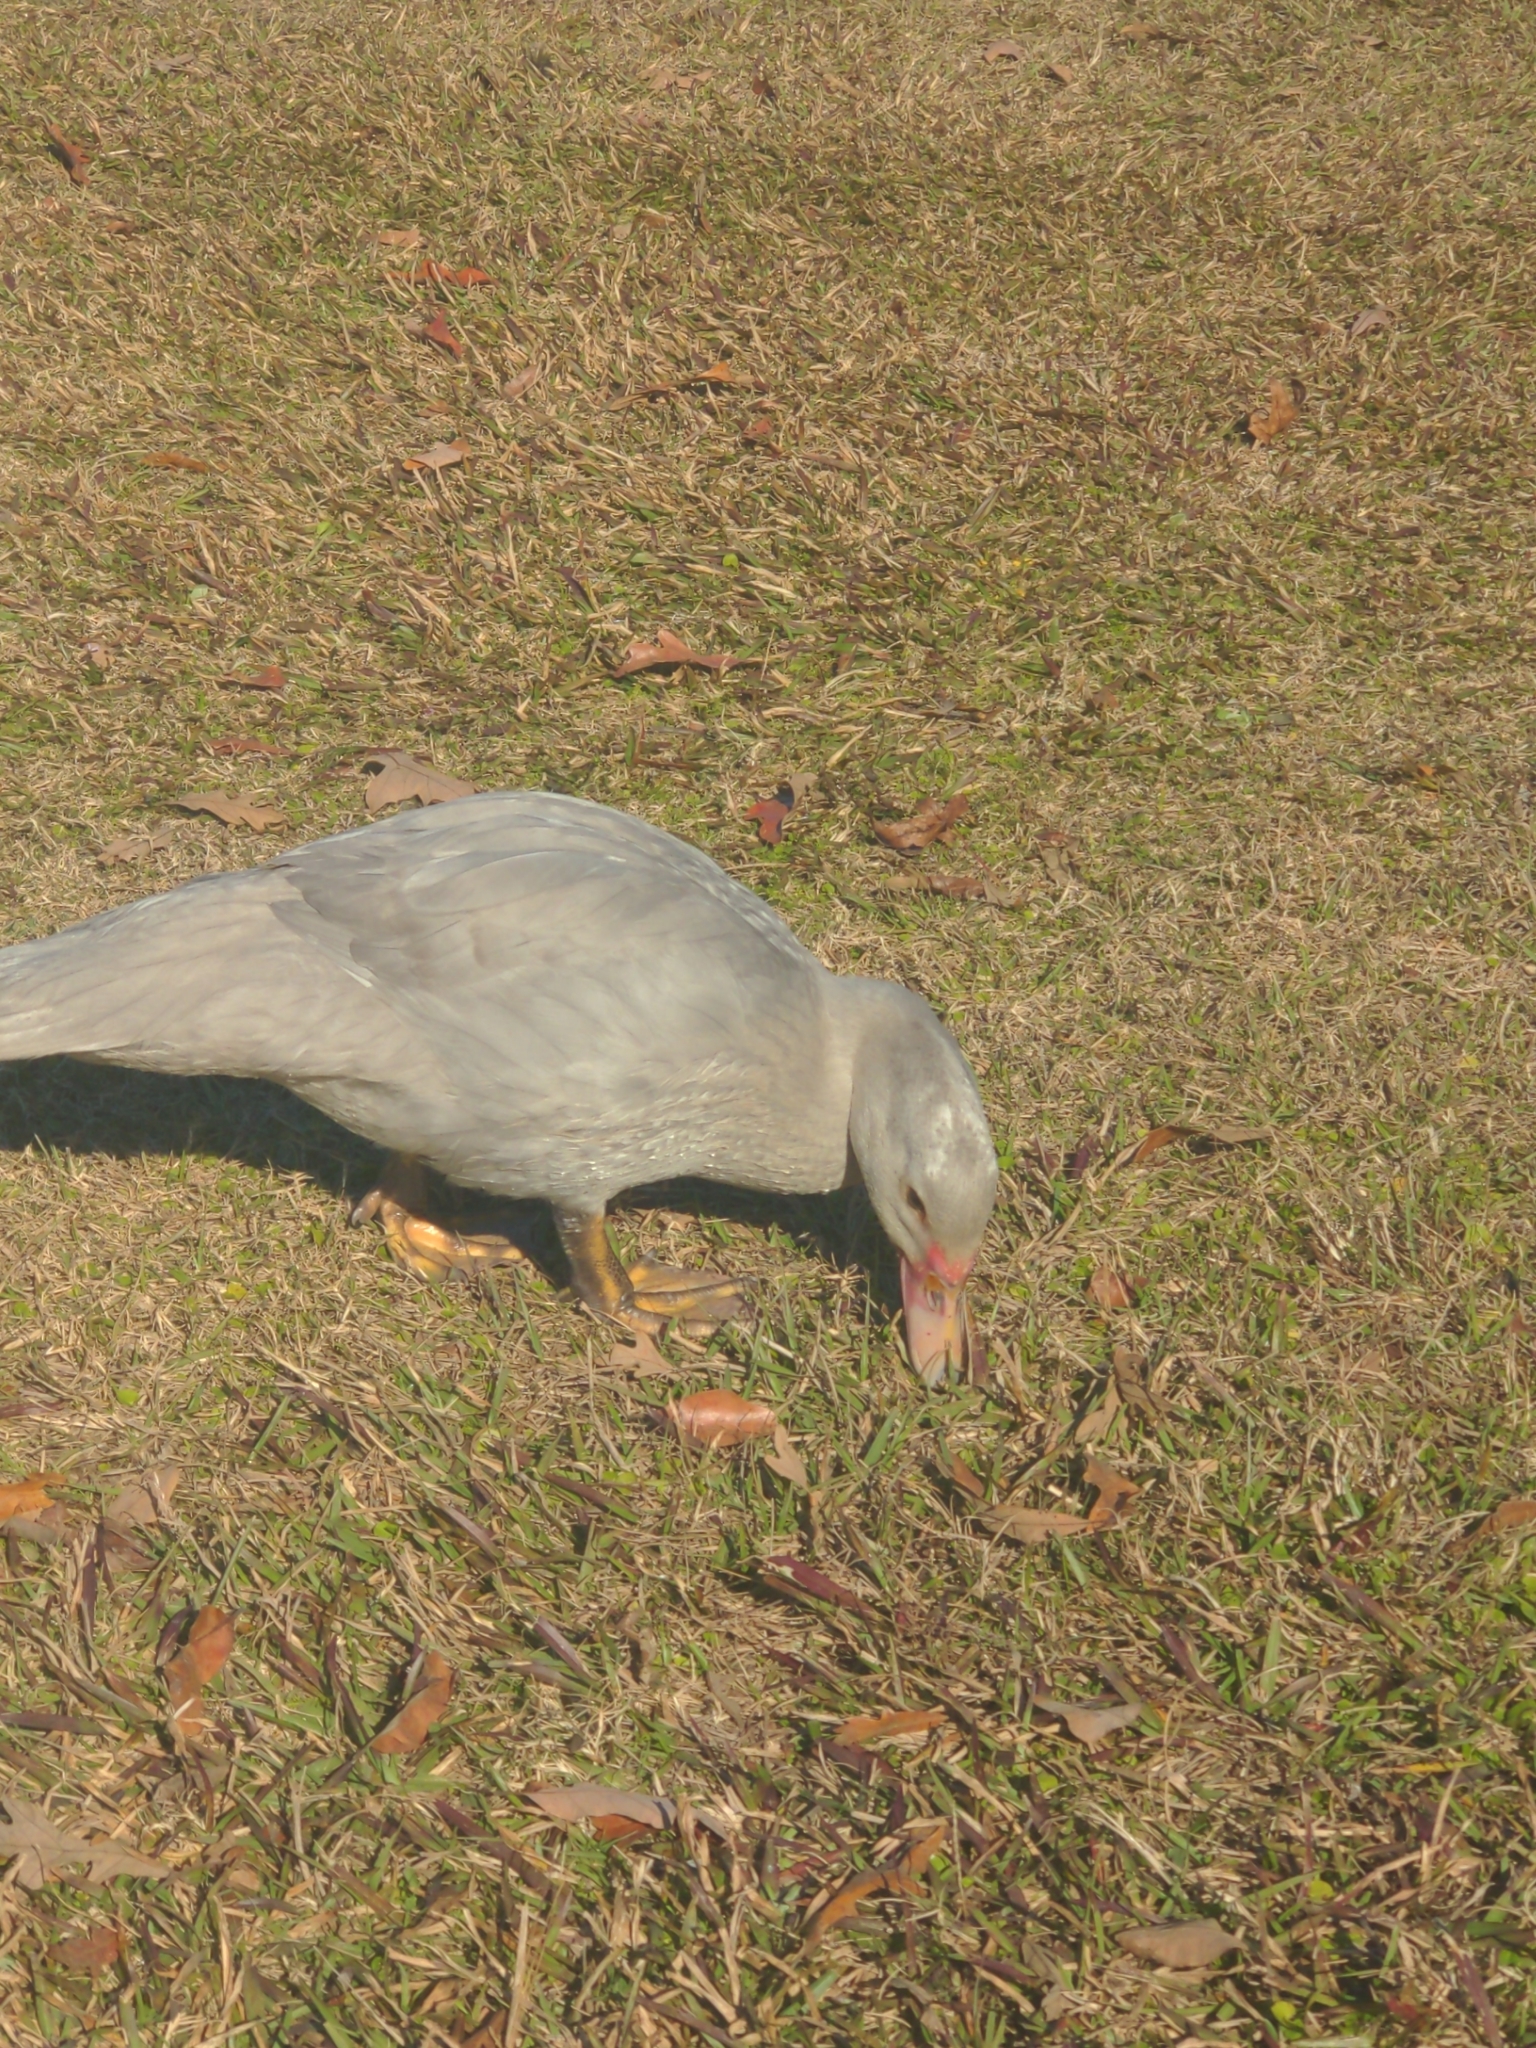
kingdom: Animalia
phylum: Chordata
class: Aves
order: Anseriformes
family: Anatidae
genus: Cairina
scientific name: Cairina moschata
